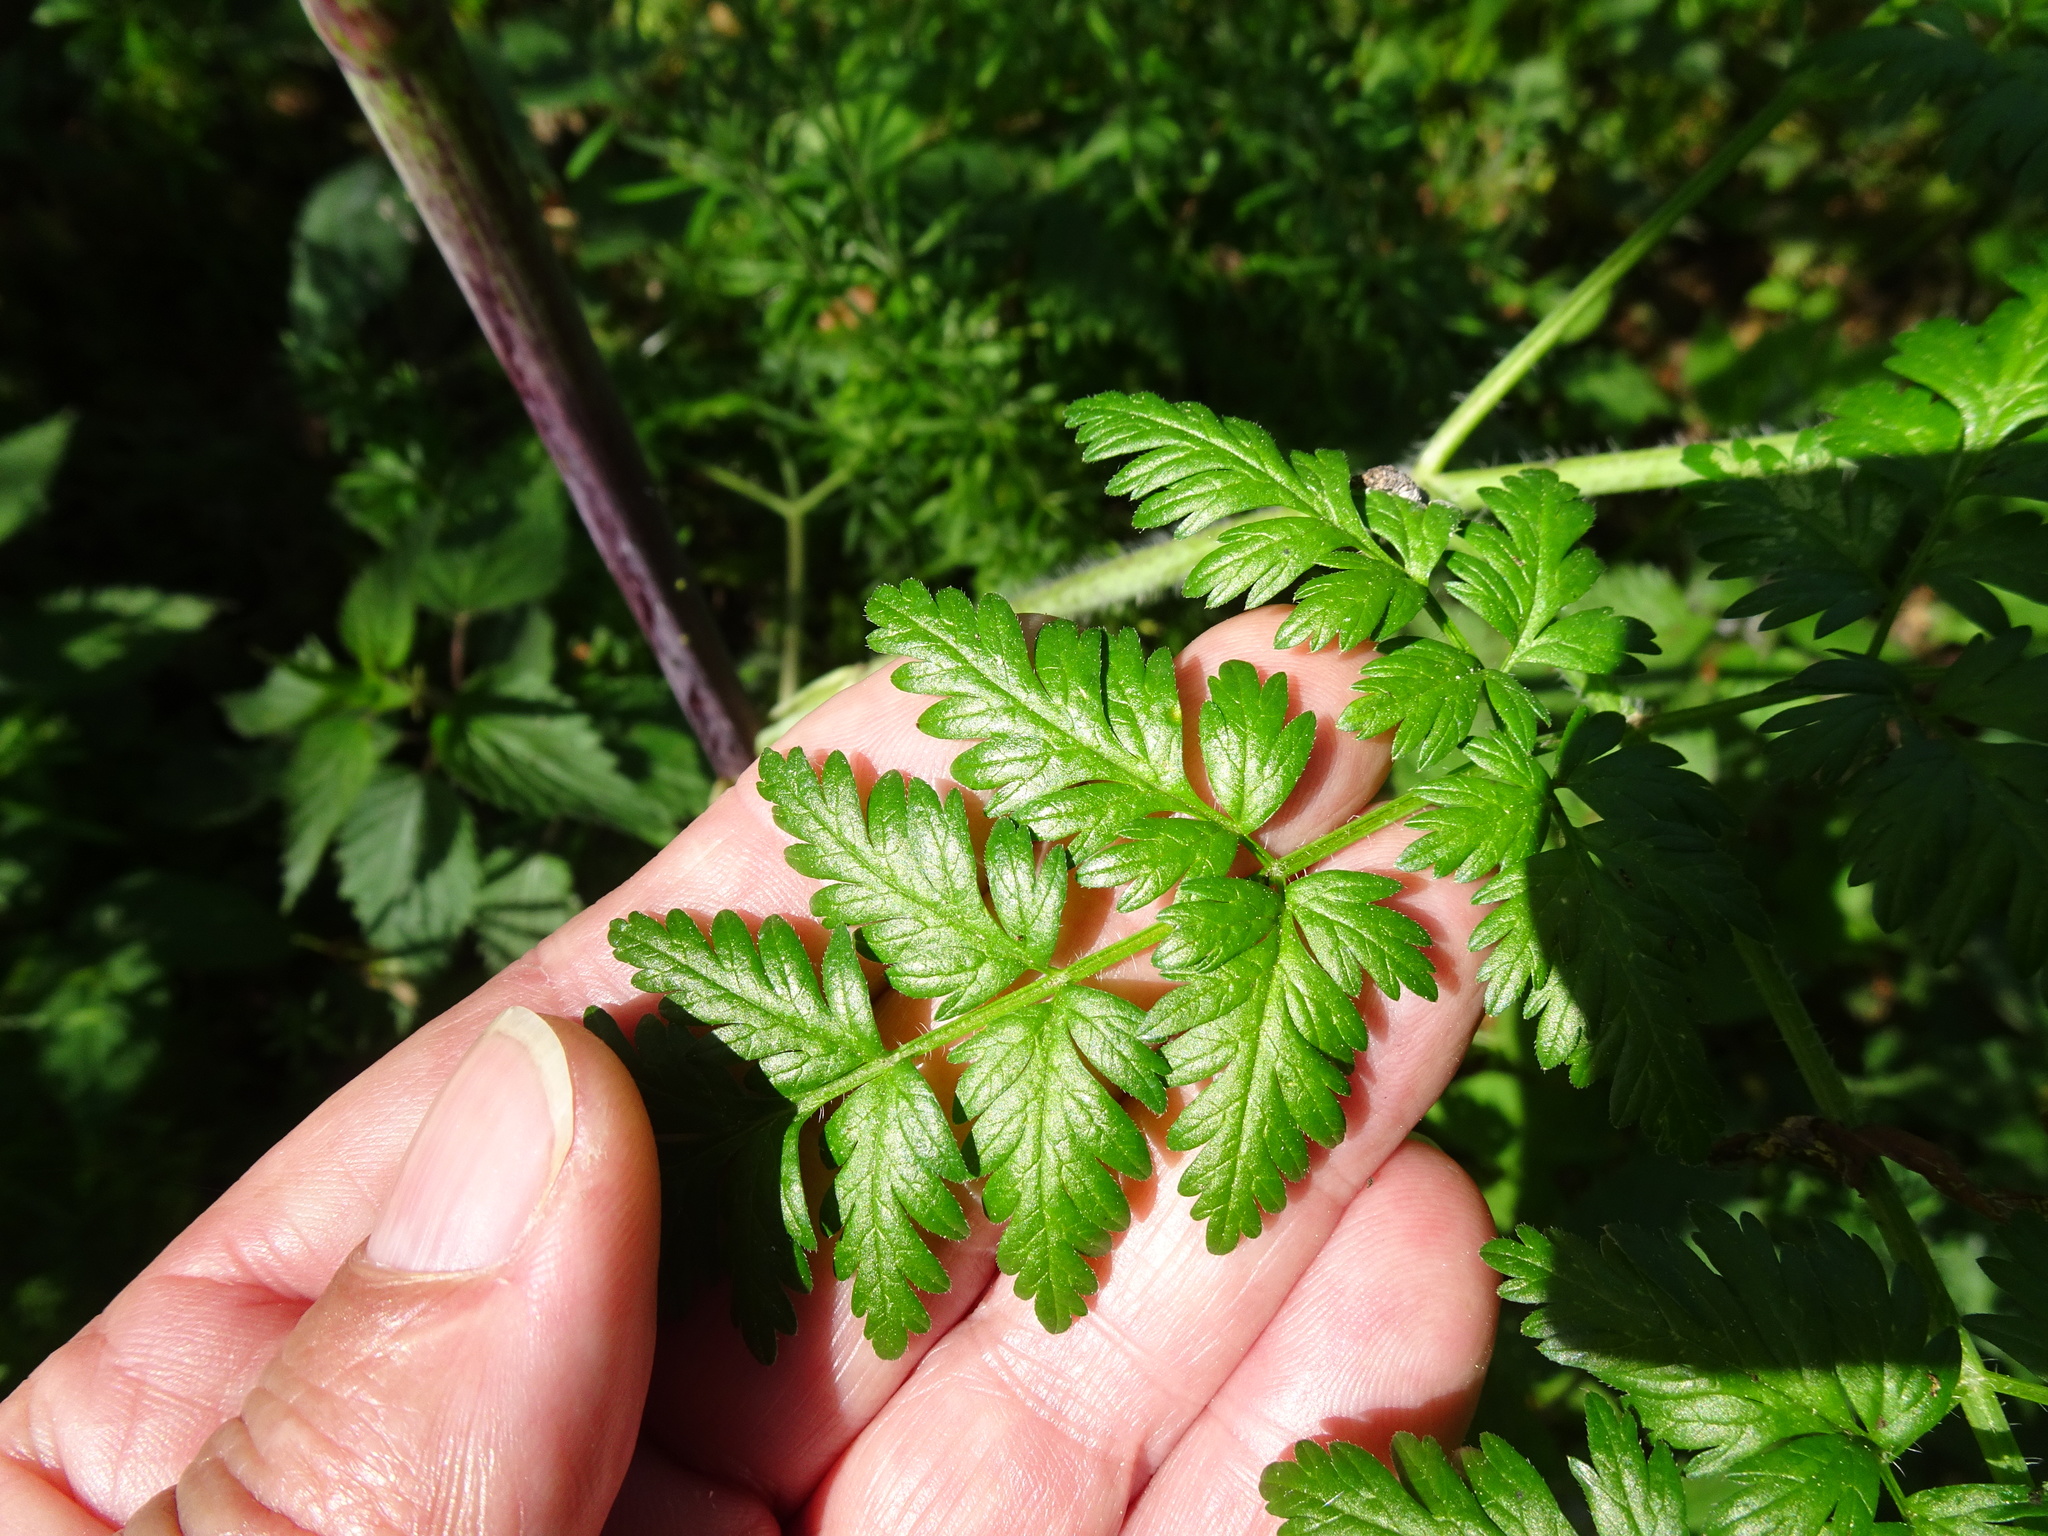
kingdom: Plantae
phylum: Tracheophyta
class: Magnoliopsida
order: Apiales
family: Apiaceae
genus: Chaerophyllum
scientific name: Chaerophyllum bulbosum
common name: Bulbous chervil
